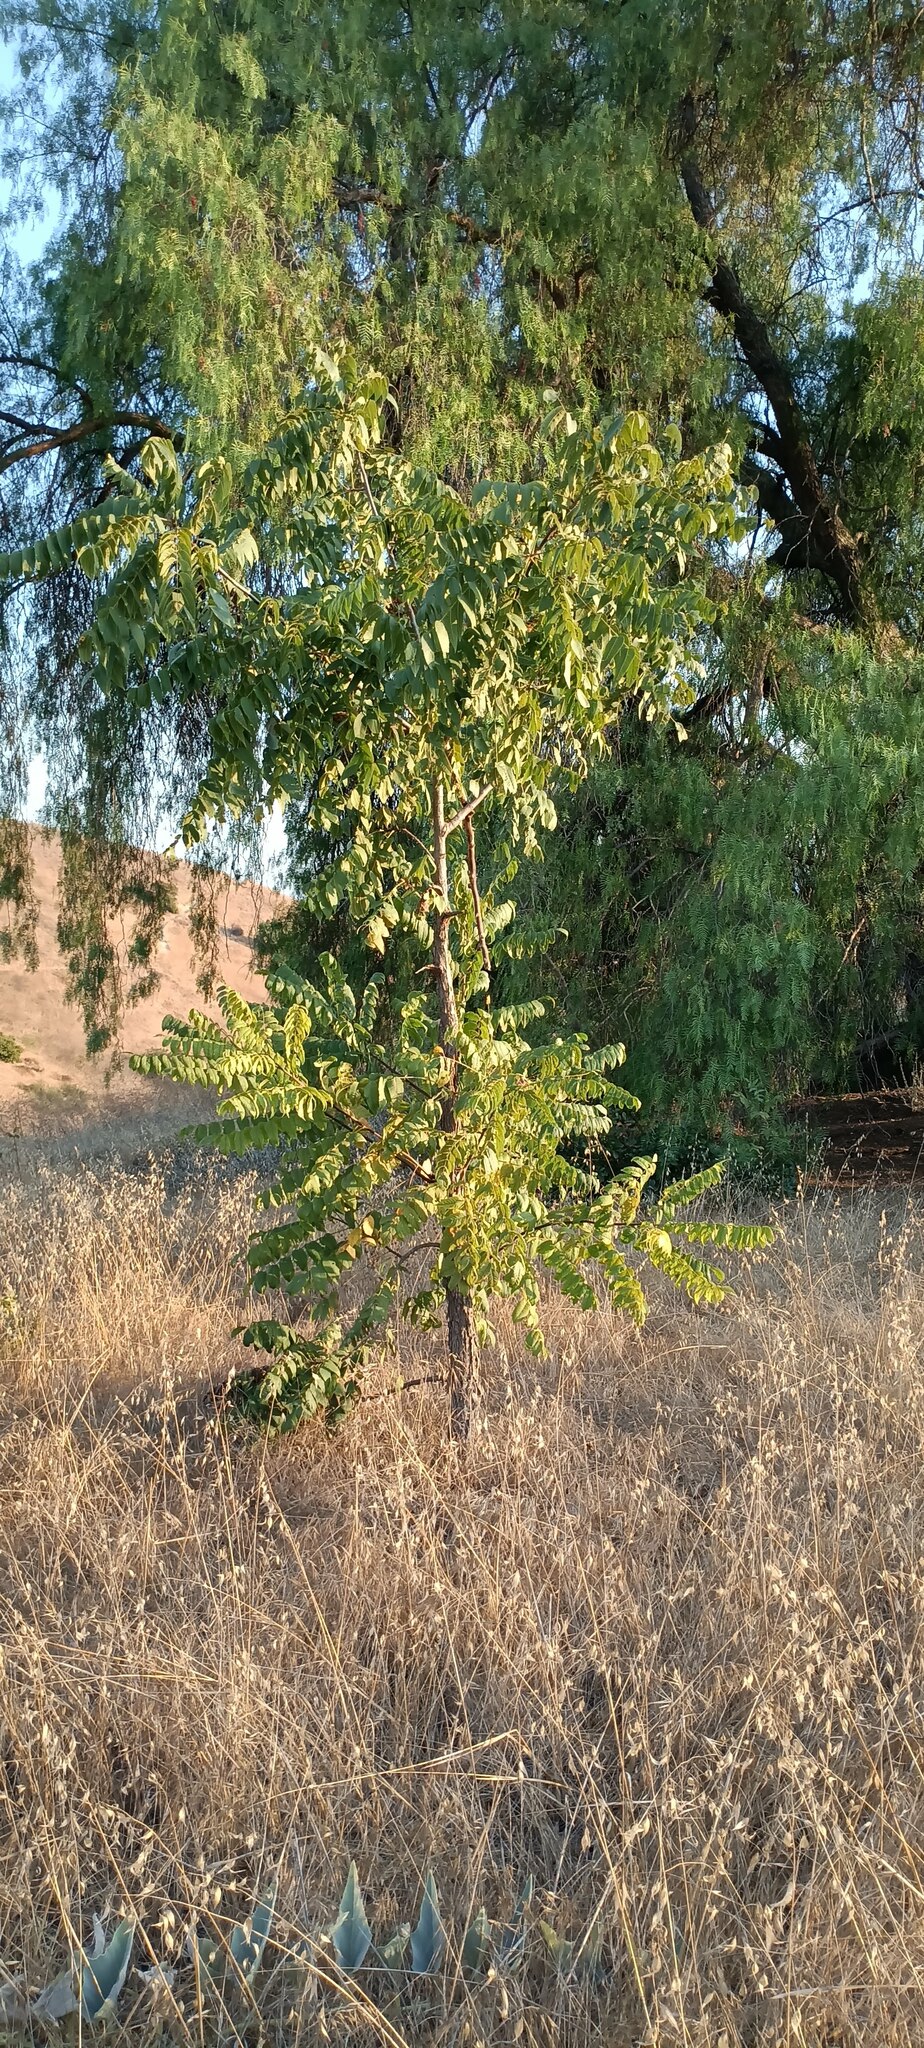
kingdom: Plantae
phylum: Tracheophyta
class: Magnoliopsida
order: Fagales
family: Juglandaceae
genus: Juglans
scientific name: Juglans californica
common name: Southern california black walnut
